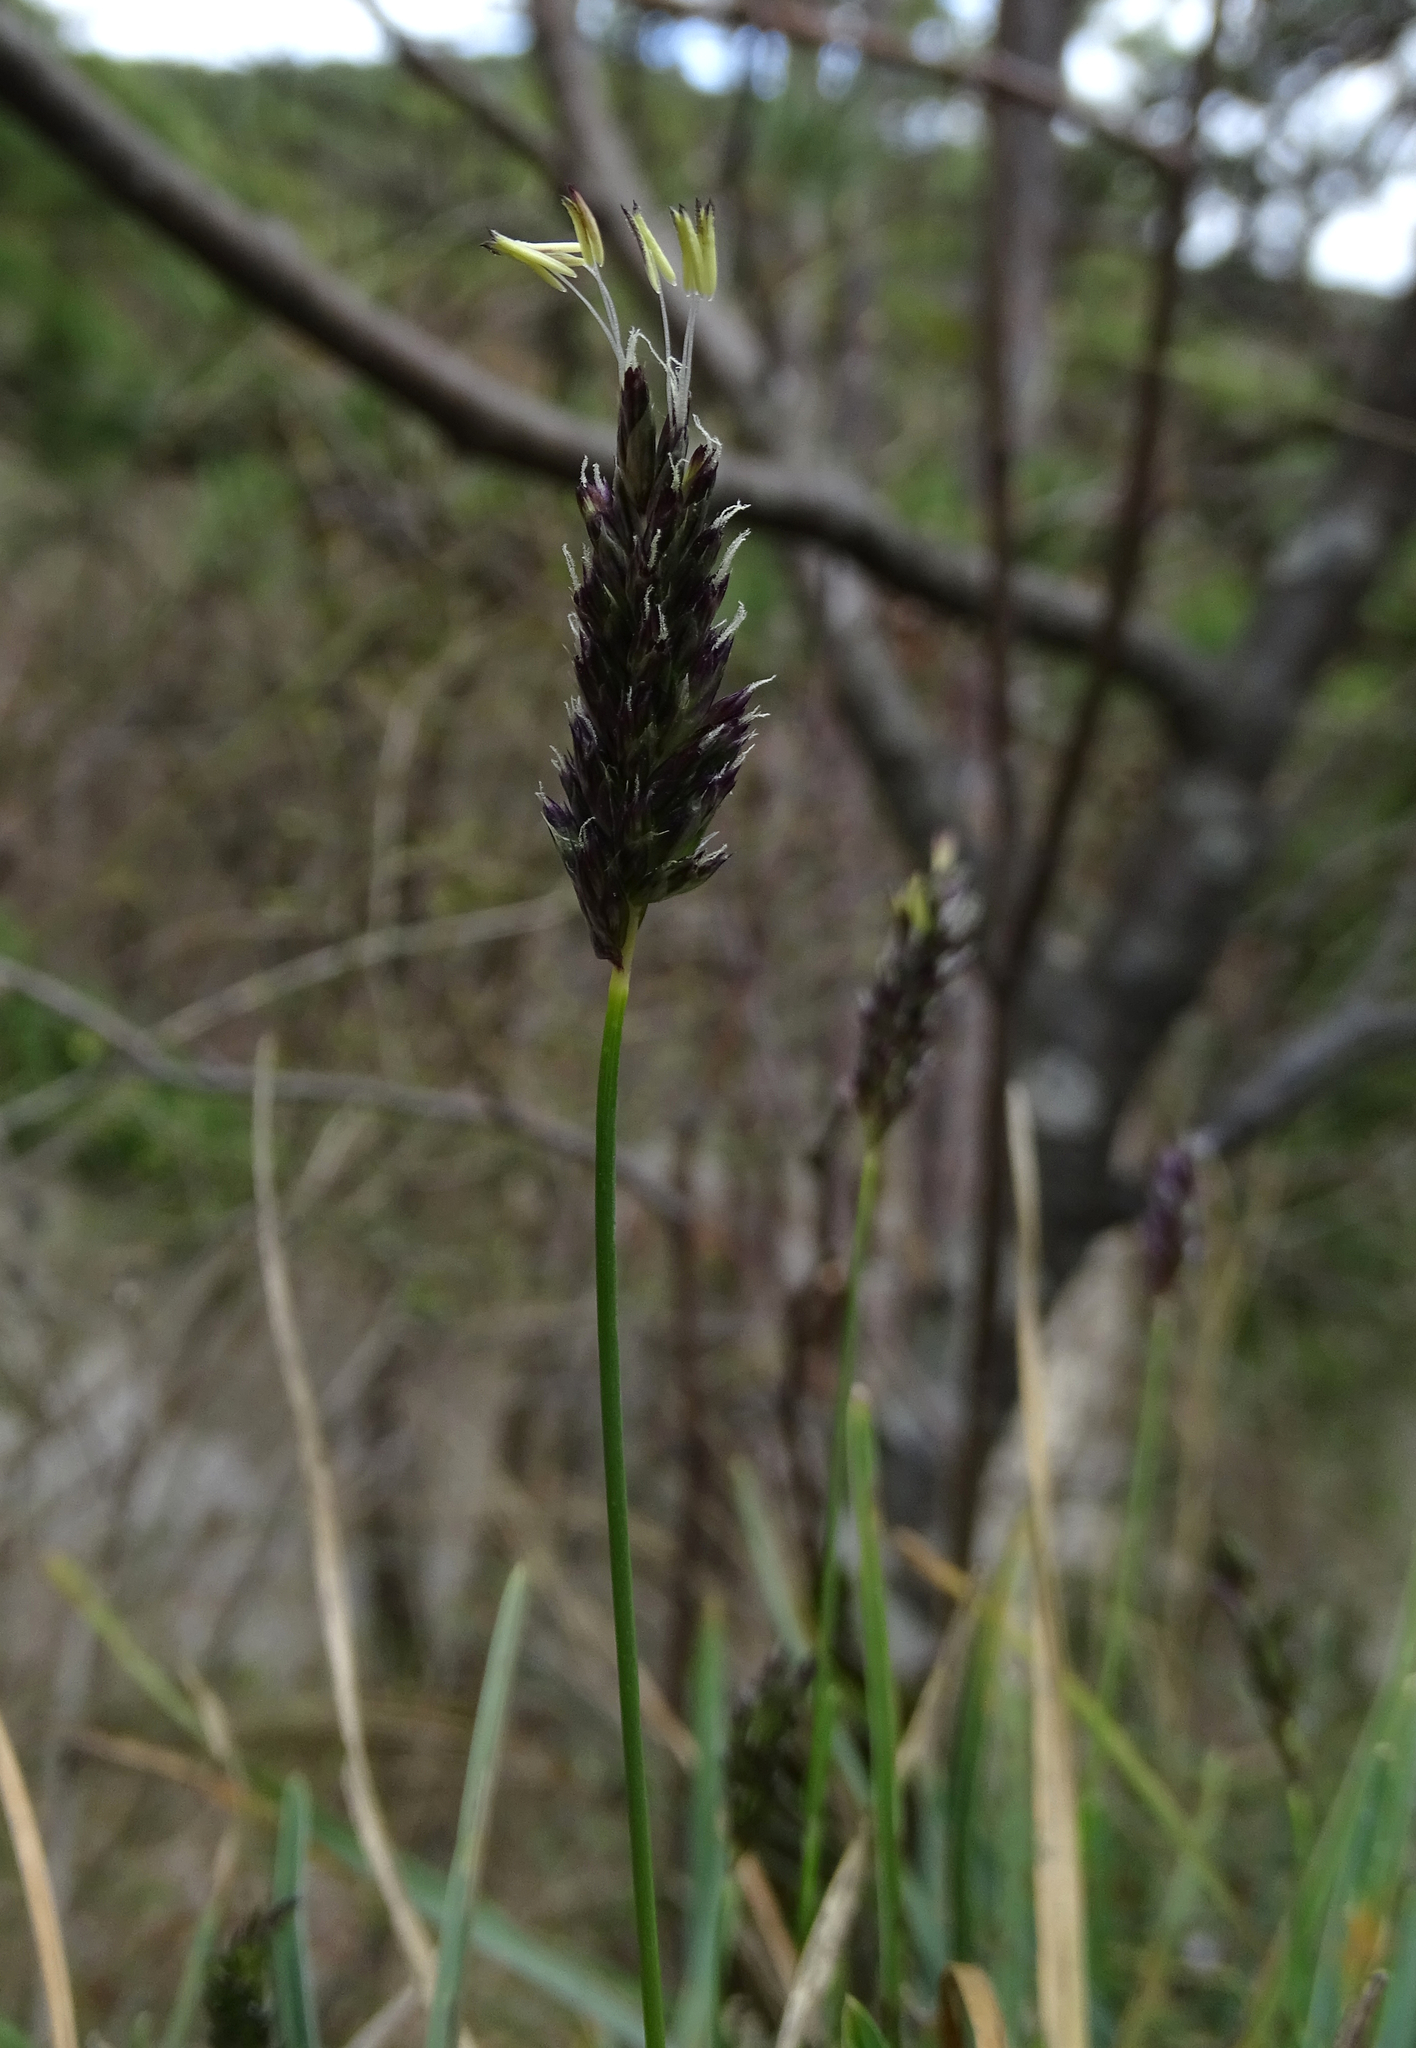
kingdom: Plantae
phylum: Tracheophyta
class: Liliopsida
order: Poales
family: Poaceae
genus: Sesleria
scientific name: Sesleria caerulea
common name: Blue moor-grass
